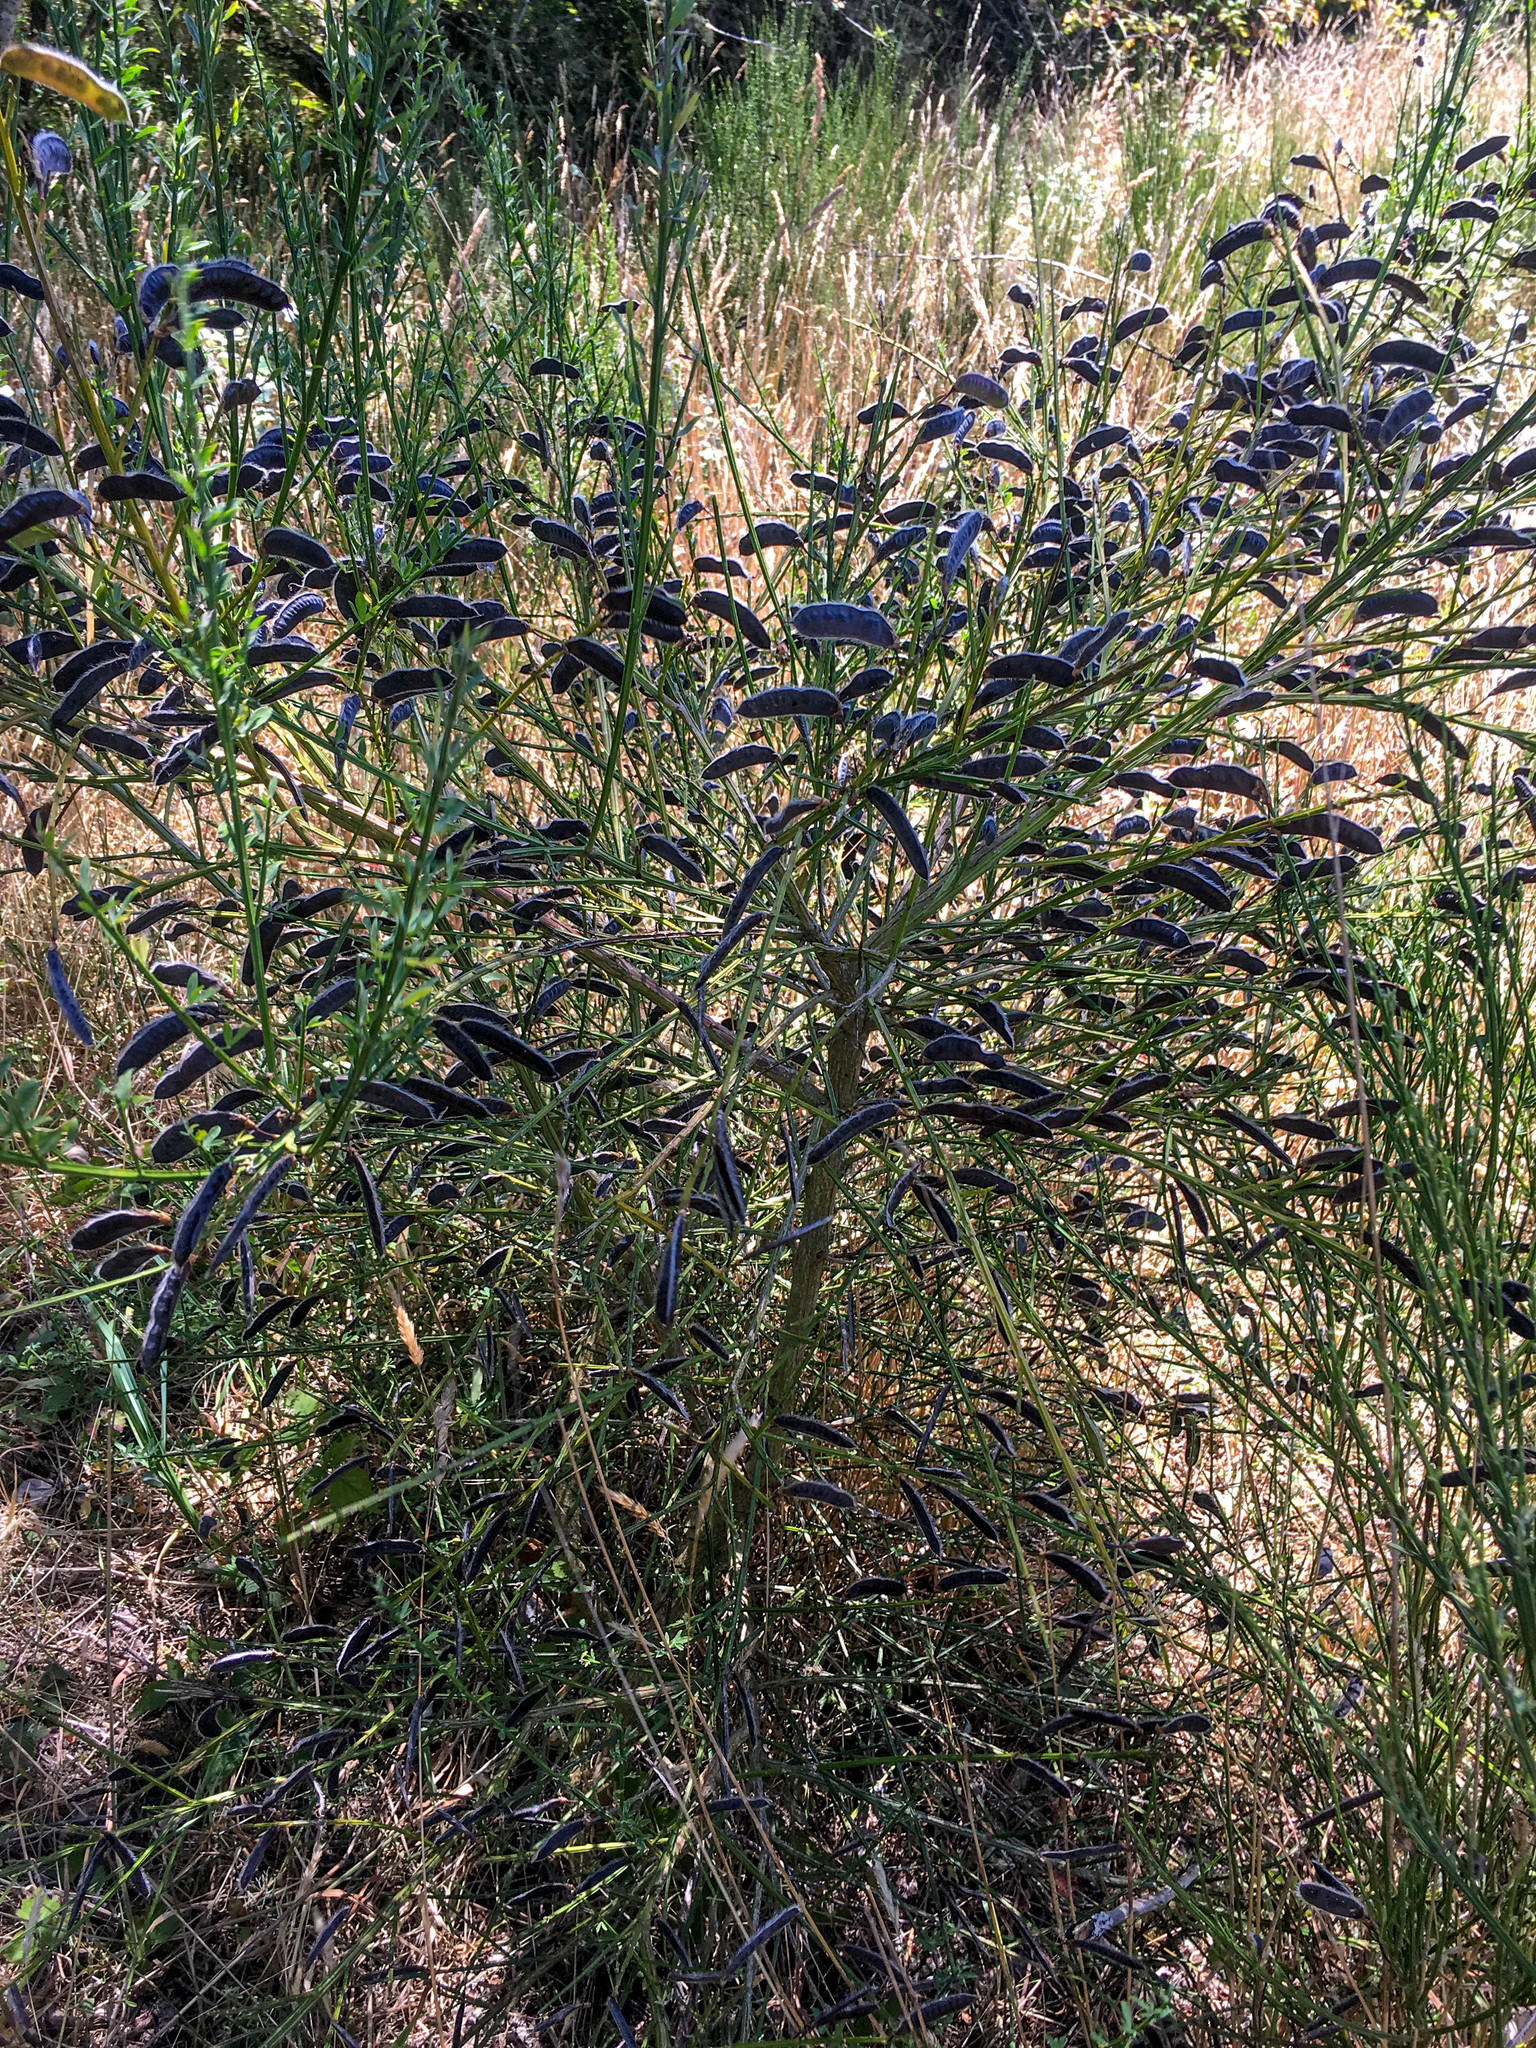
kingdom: Plantae
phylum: Tracheophyta
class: Magnoliopsida
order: Fabales
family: Fabaceae
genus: Cytisus
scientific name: Cytisus scoparius
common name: Scotch broom
